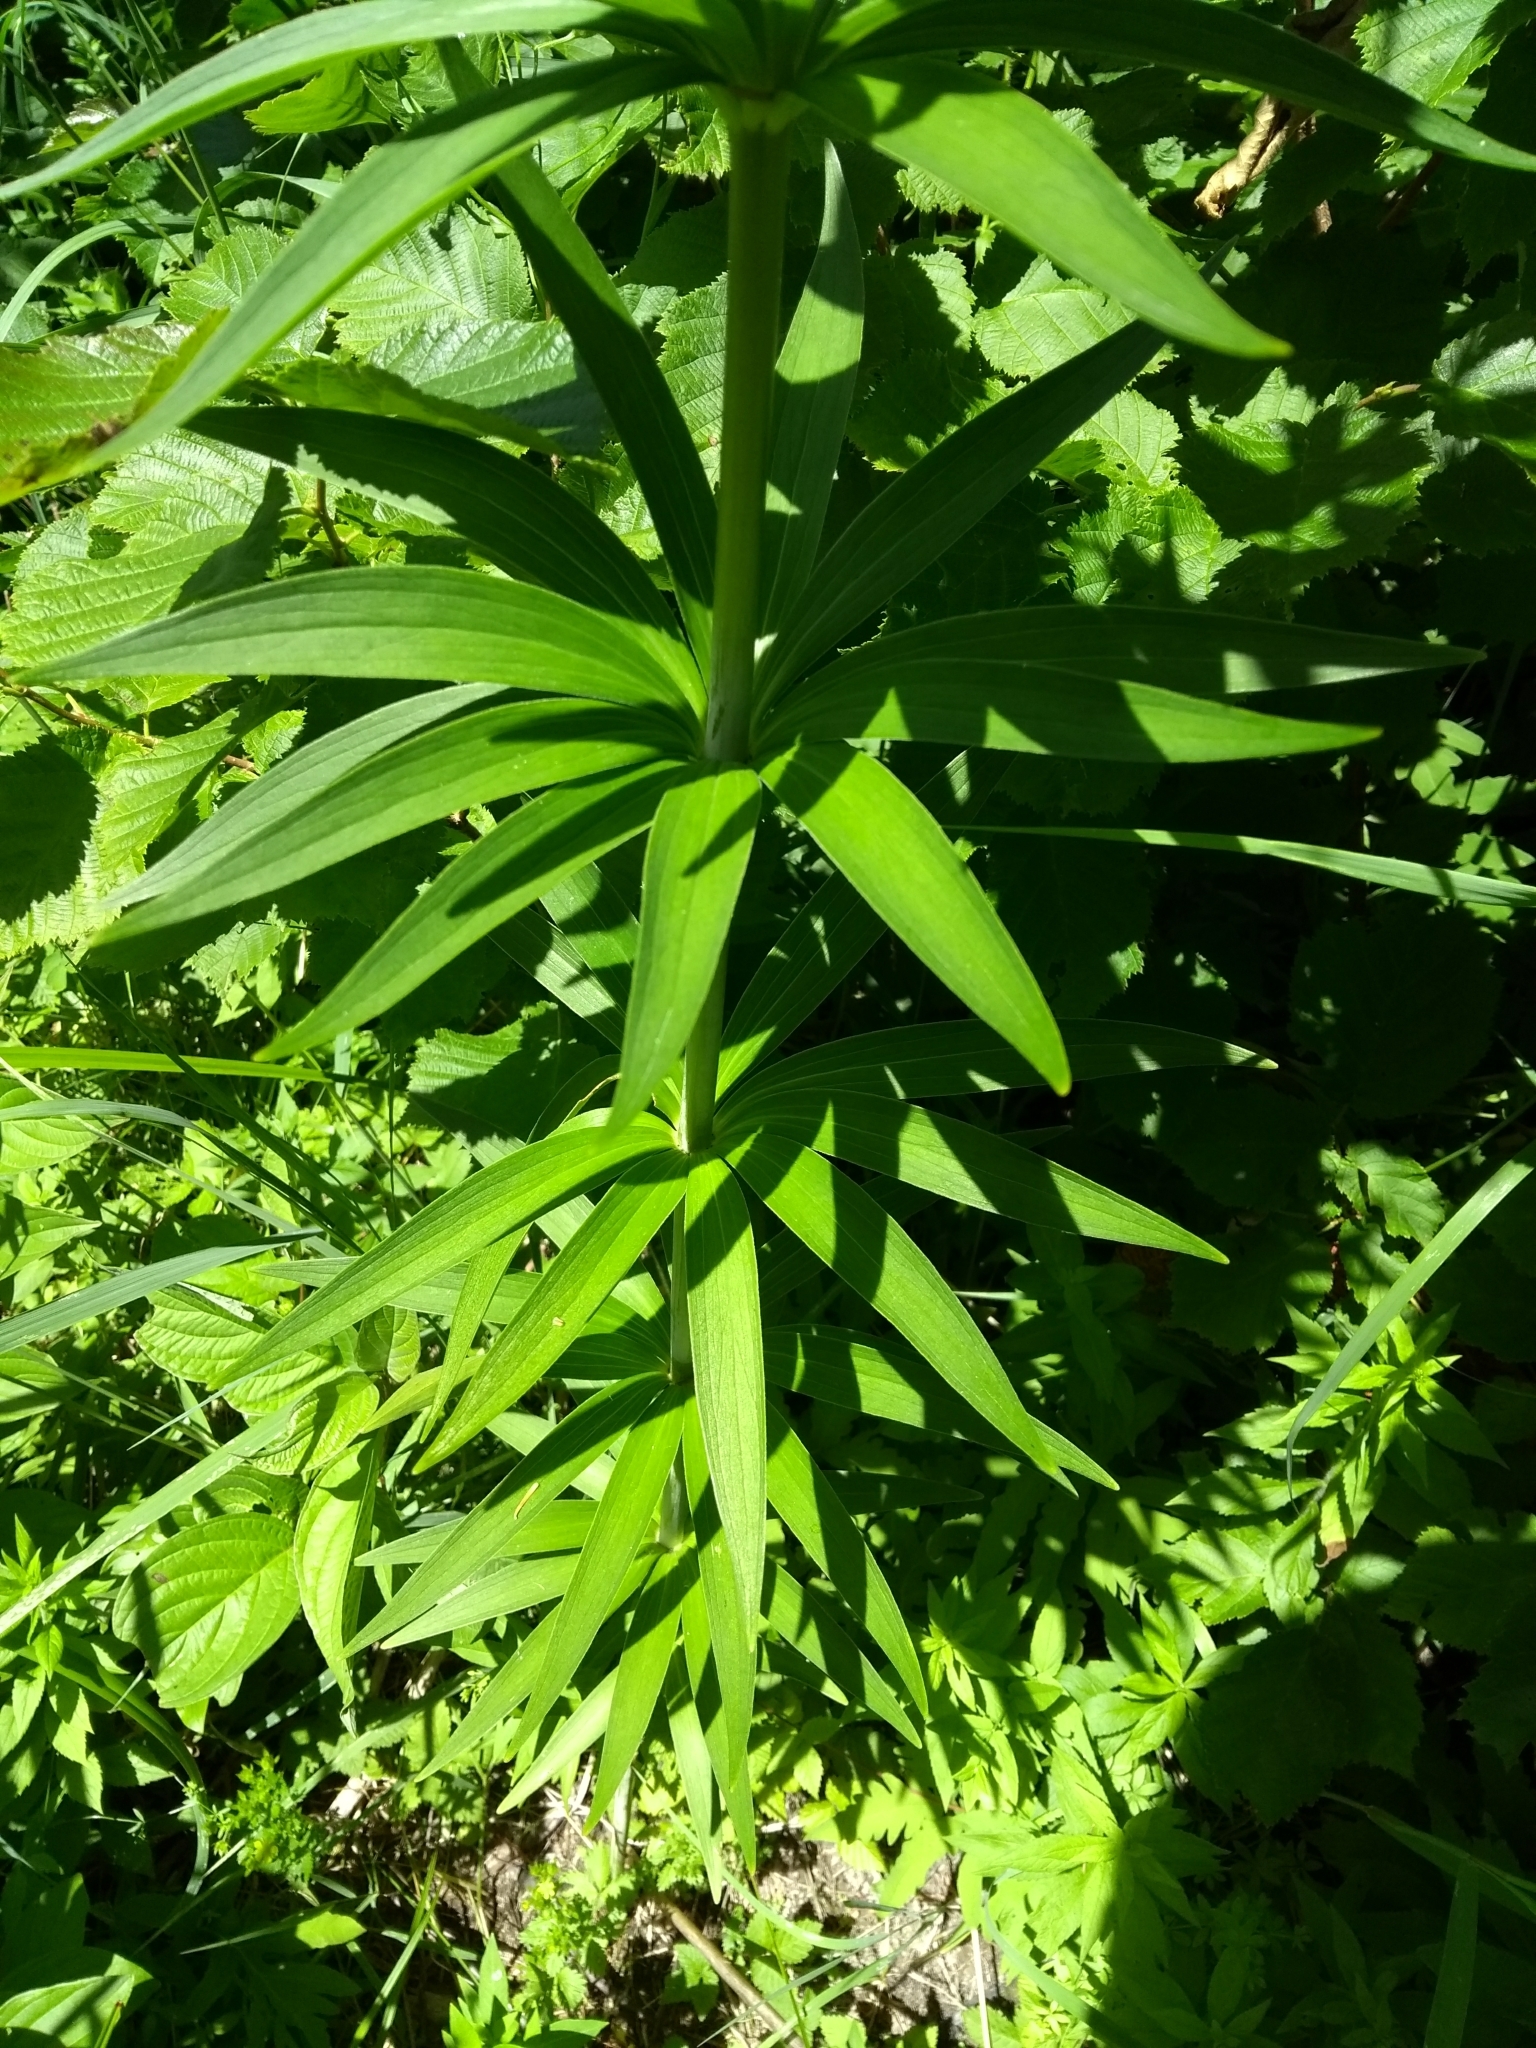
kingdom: Plantae
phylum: Tracheophyta
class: Liliopsida
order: Liliales
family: Liliaceae
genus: Lilium
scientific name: Lilium canadense
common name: Canada lily
